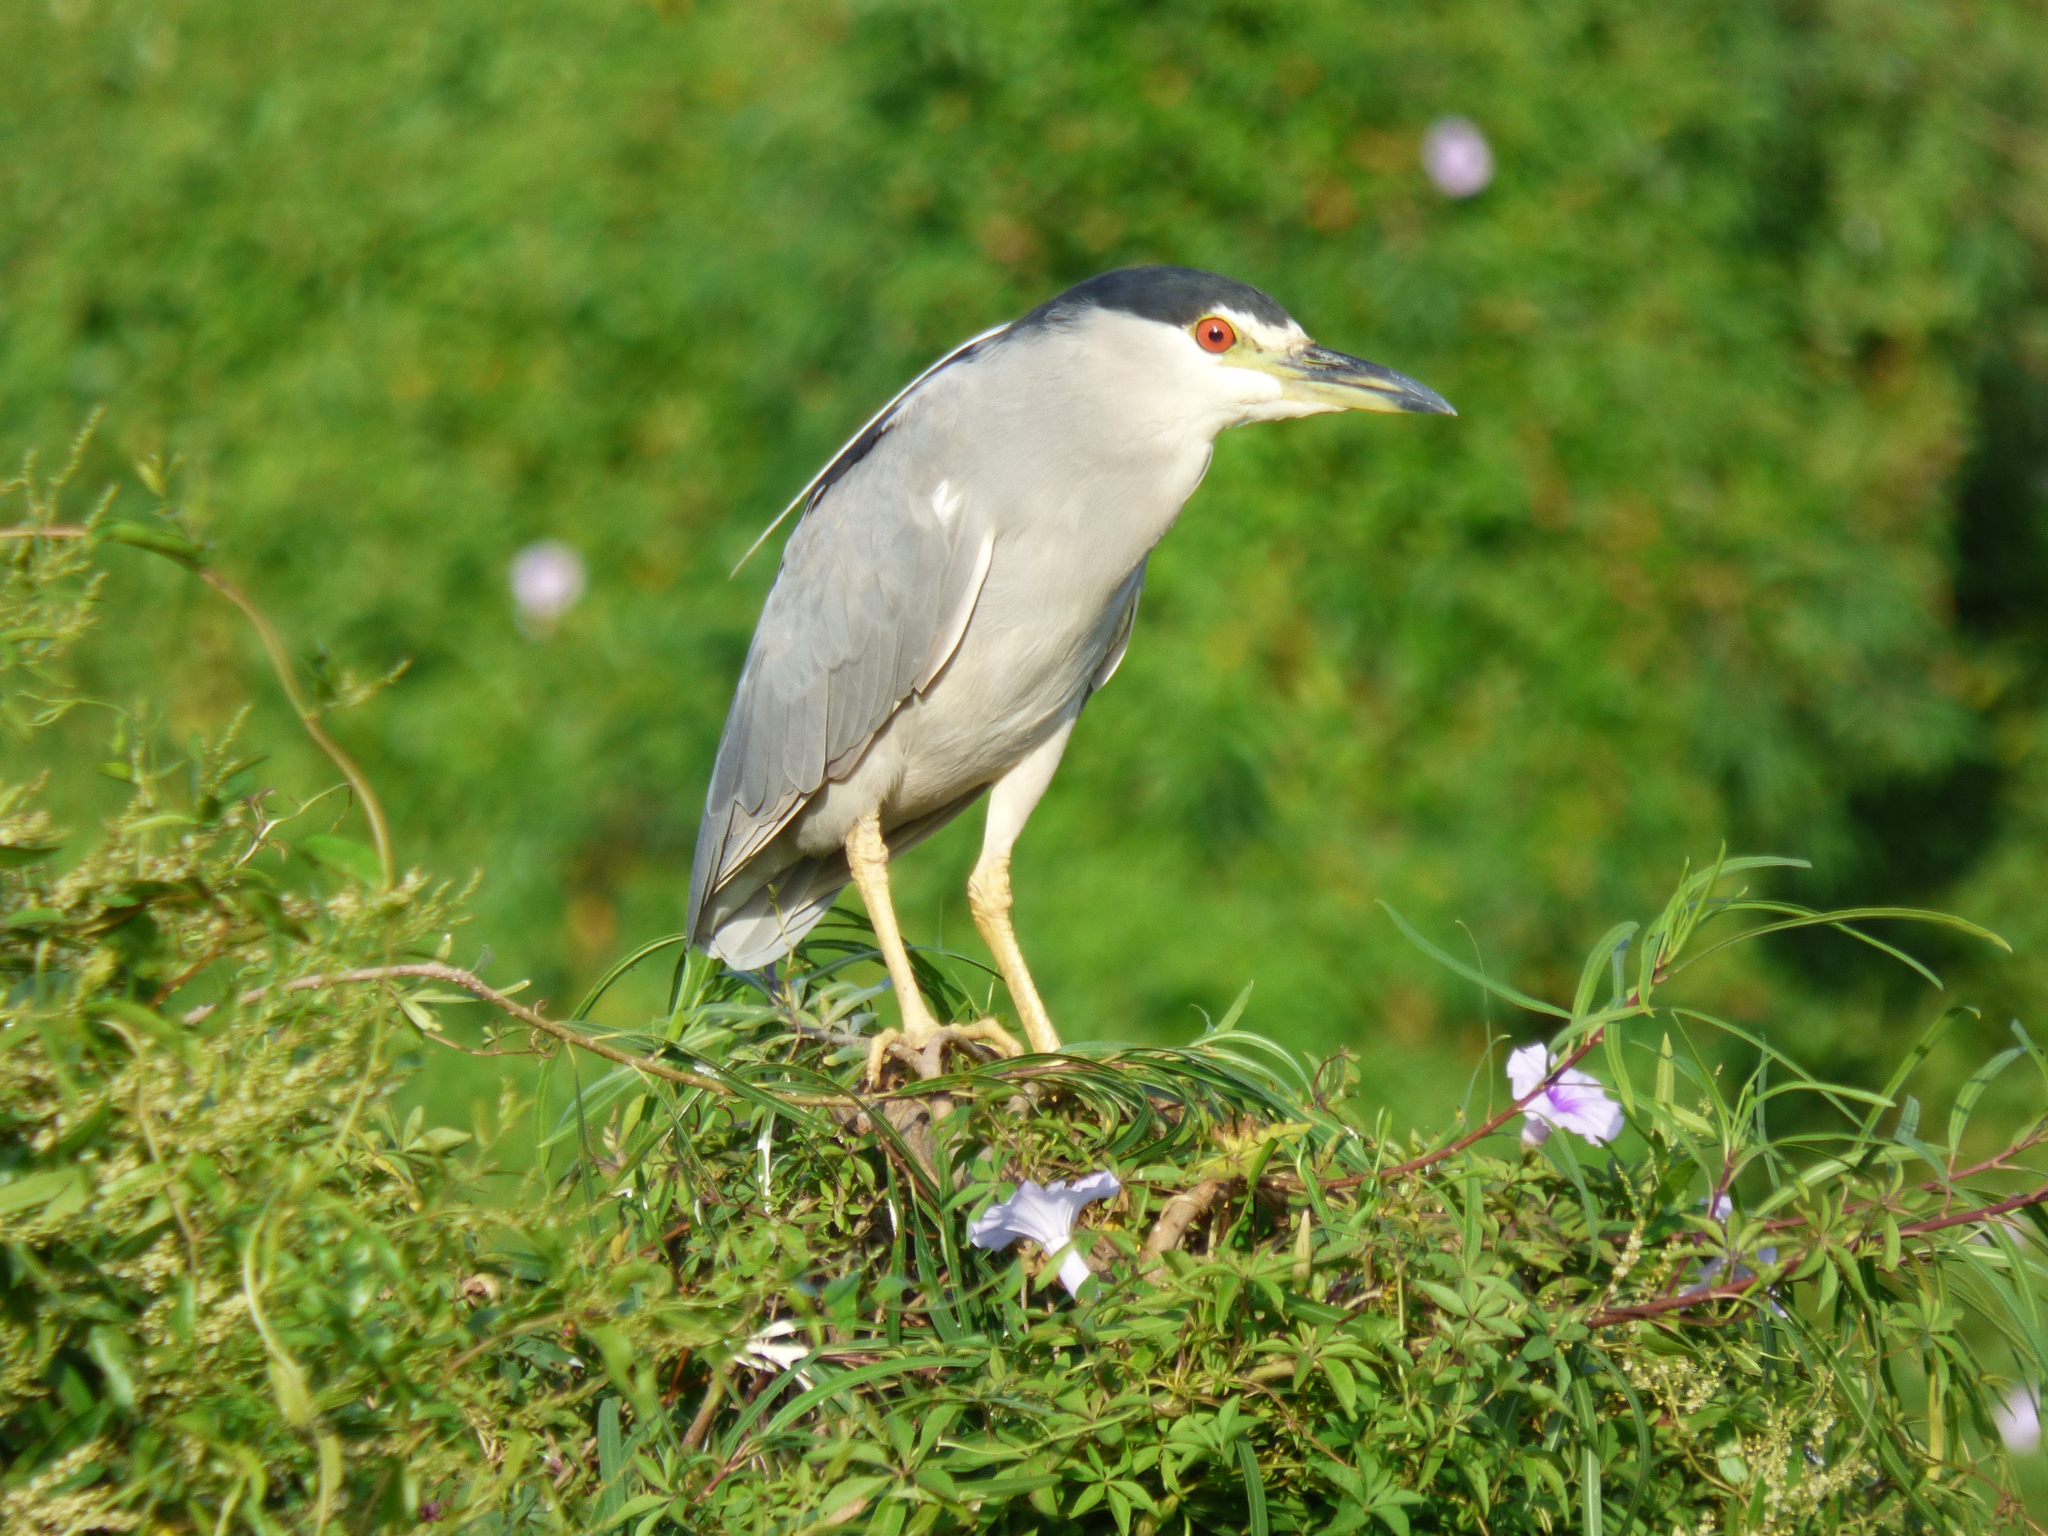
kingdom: Animalia
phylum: Chordata
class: Aves
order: Pelecaniformes
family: Ardeidae
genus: Nycticorax
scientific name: Nycticorax nycticorax
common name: Black-crowned night heron
